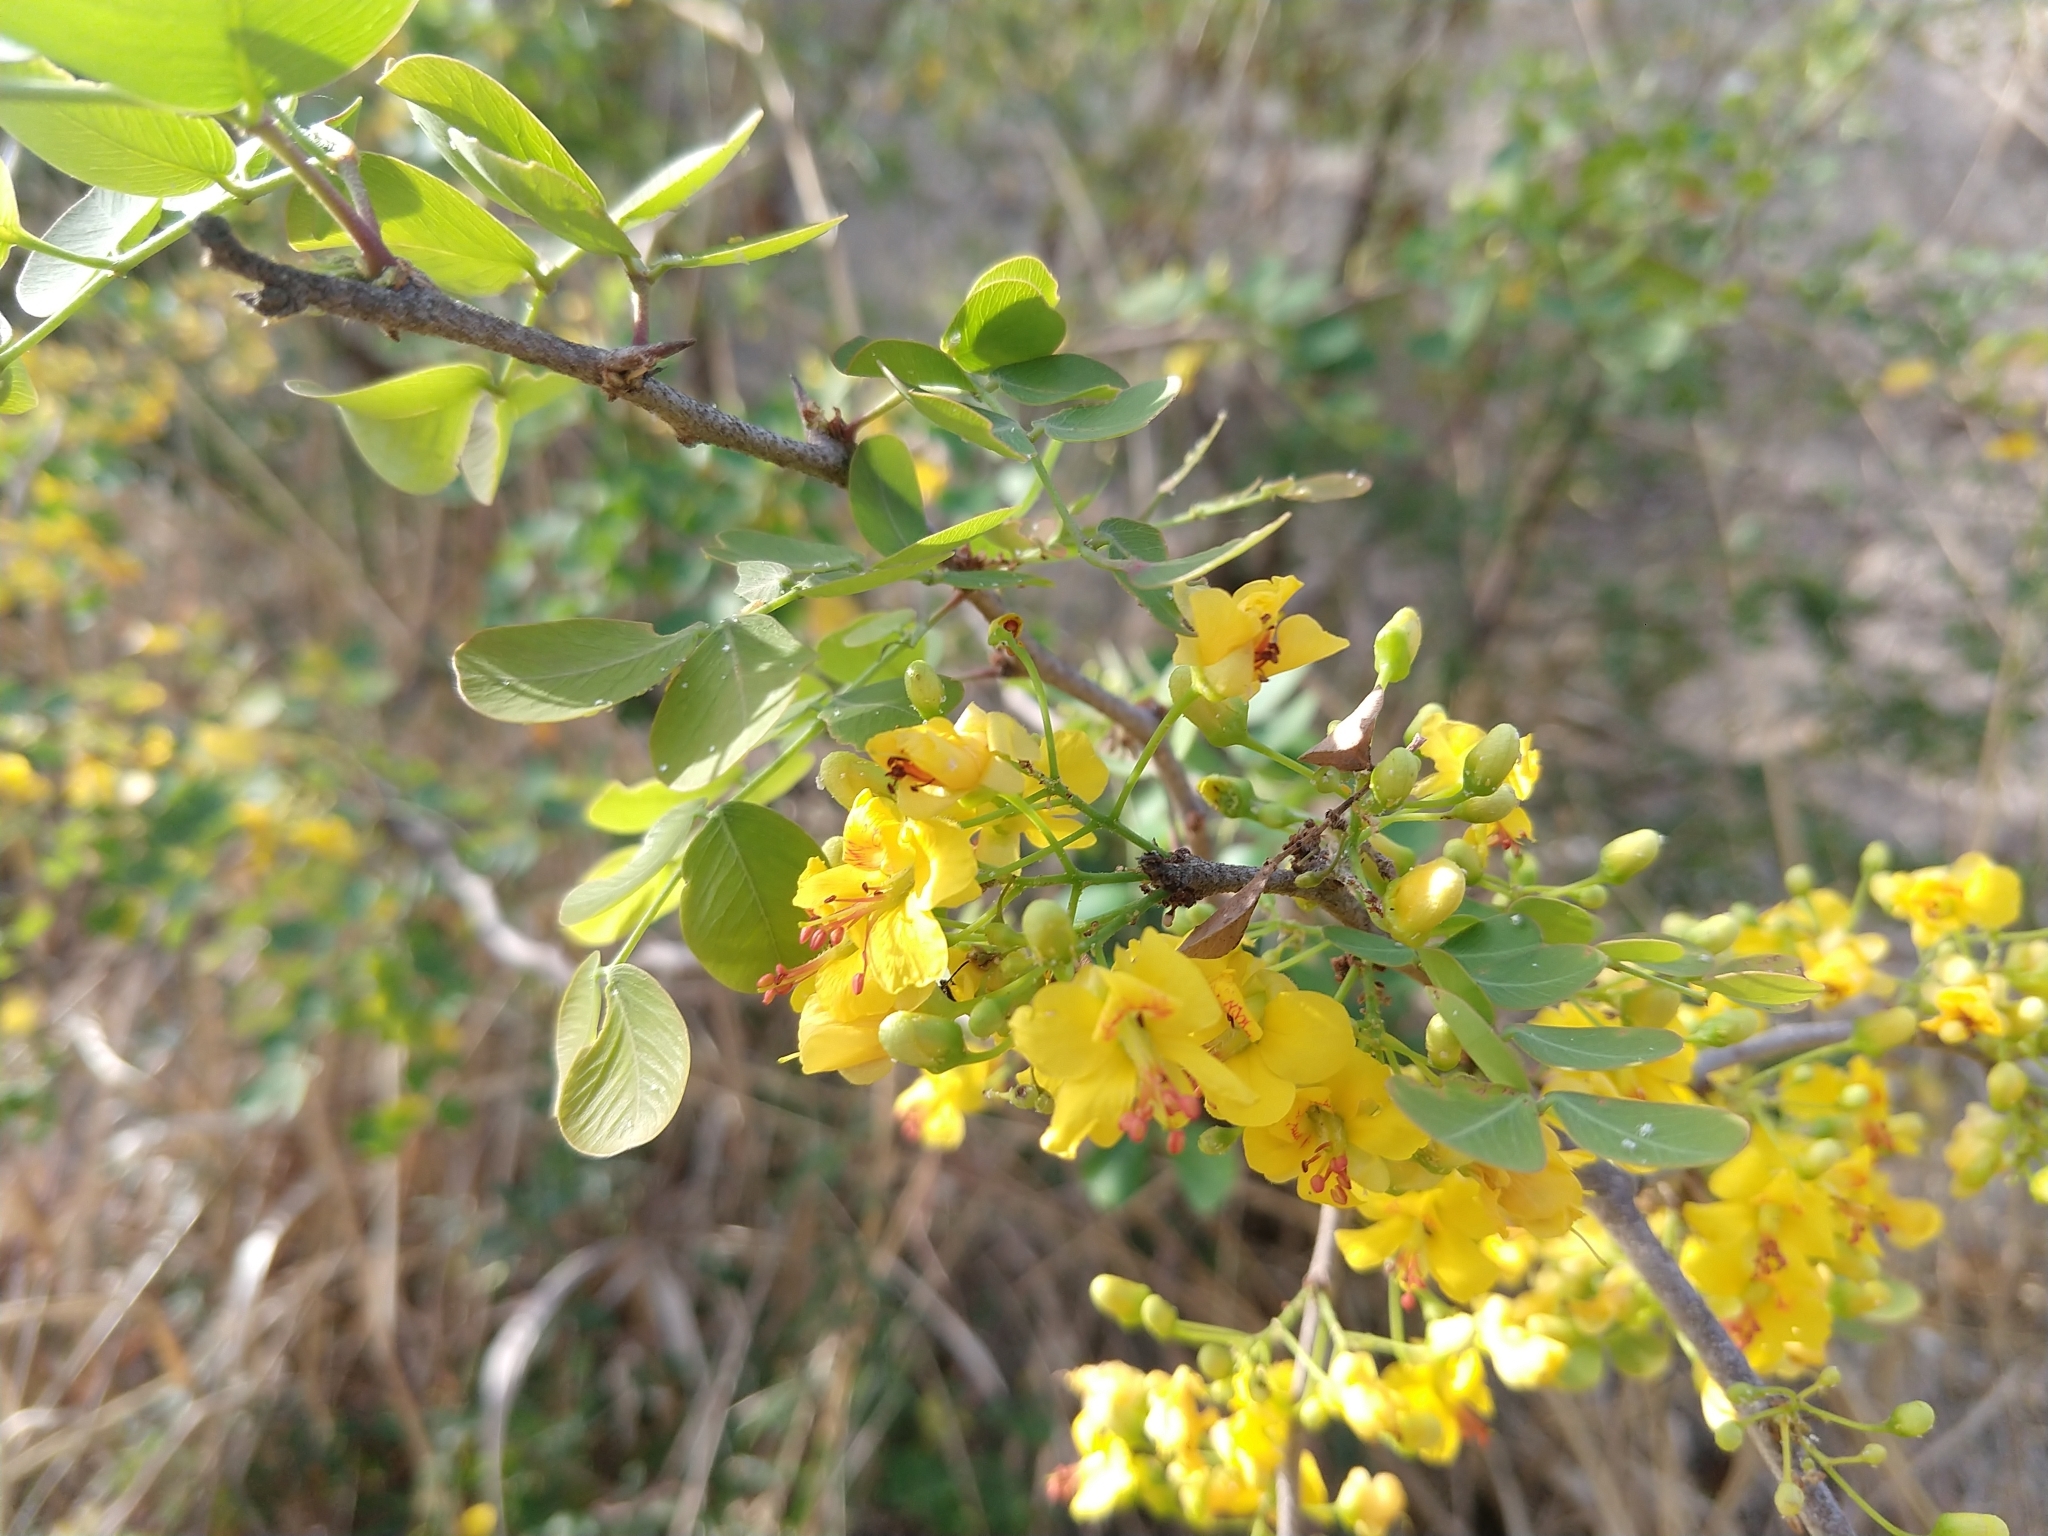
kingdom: Plantae
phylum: Tracheophyta
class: Magnoliopsida
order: Fabales
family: Fabaceae
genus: Haematoxylum
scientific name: Haematoxylum brasiletto
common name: Peachwood
